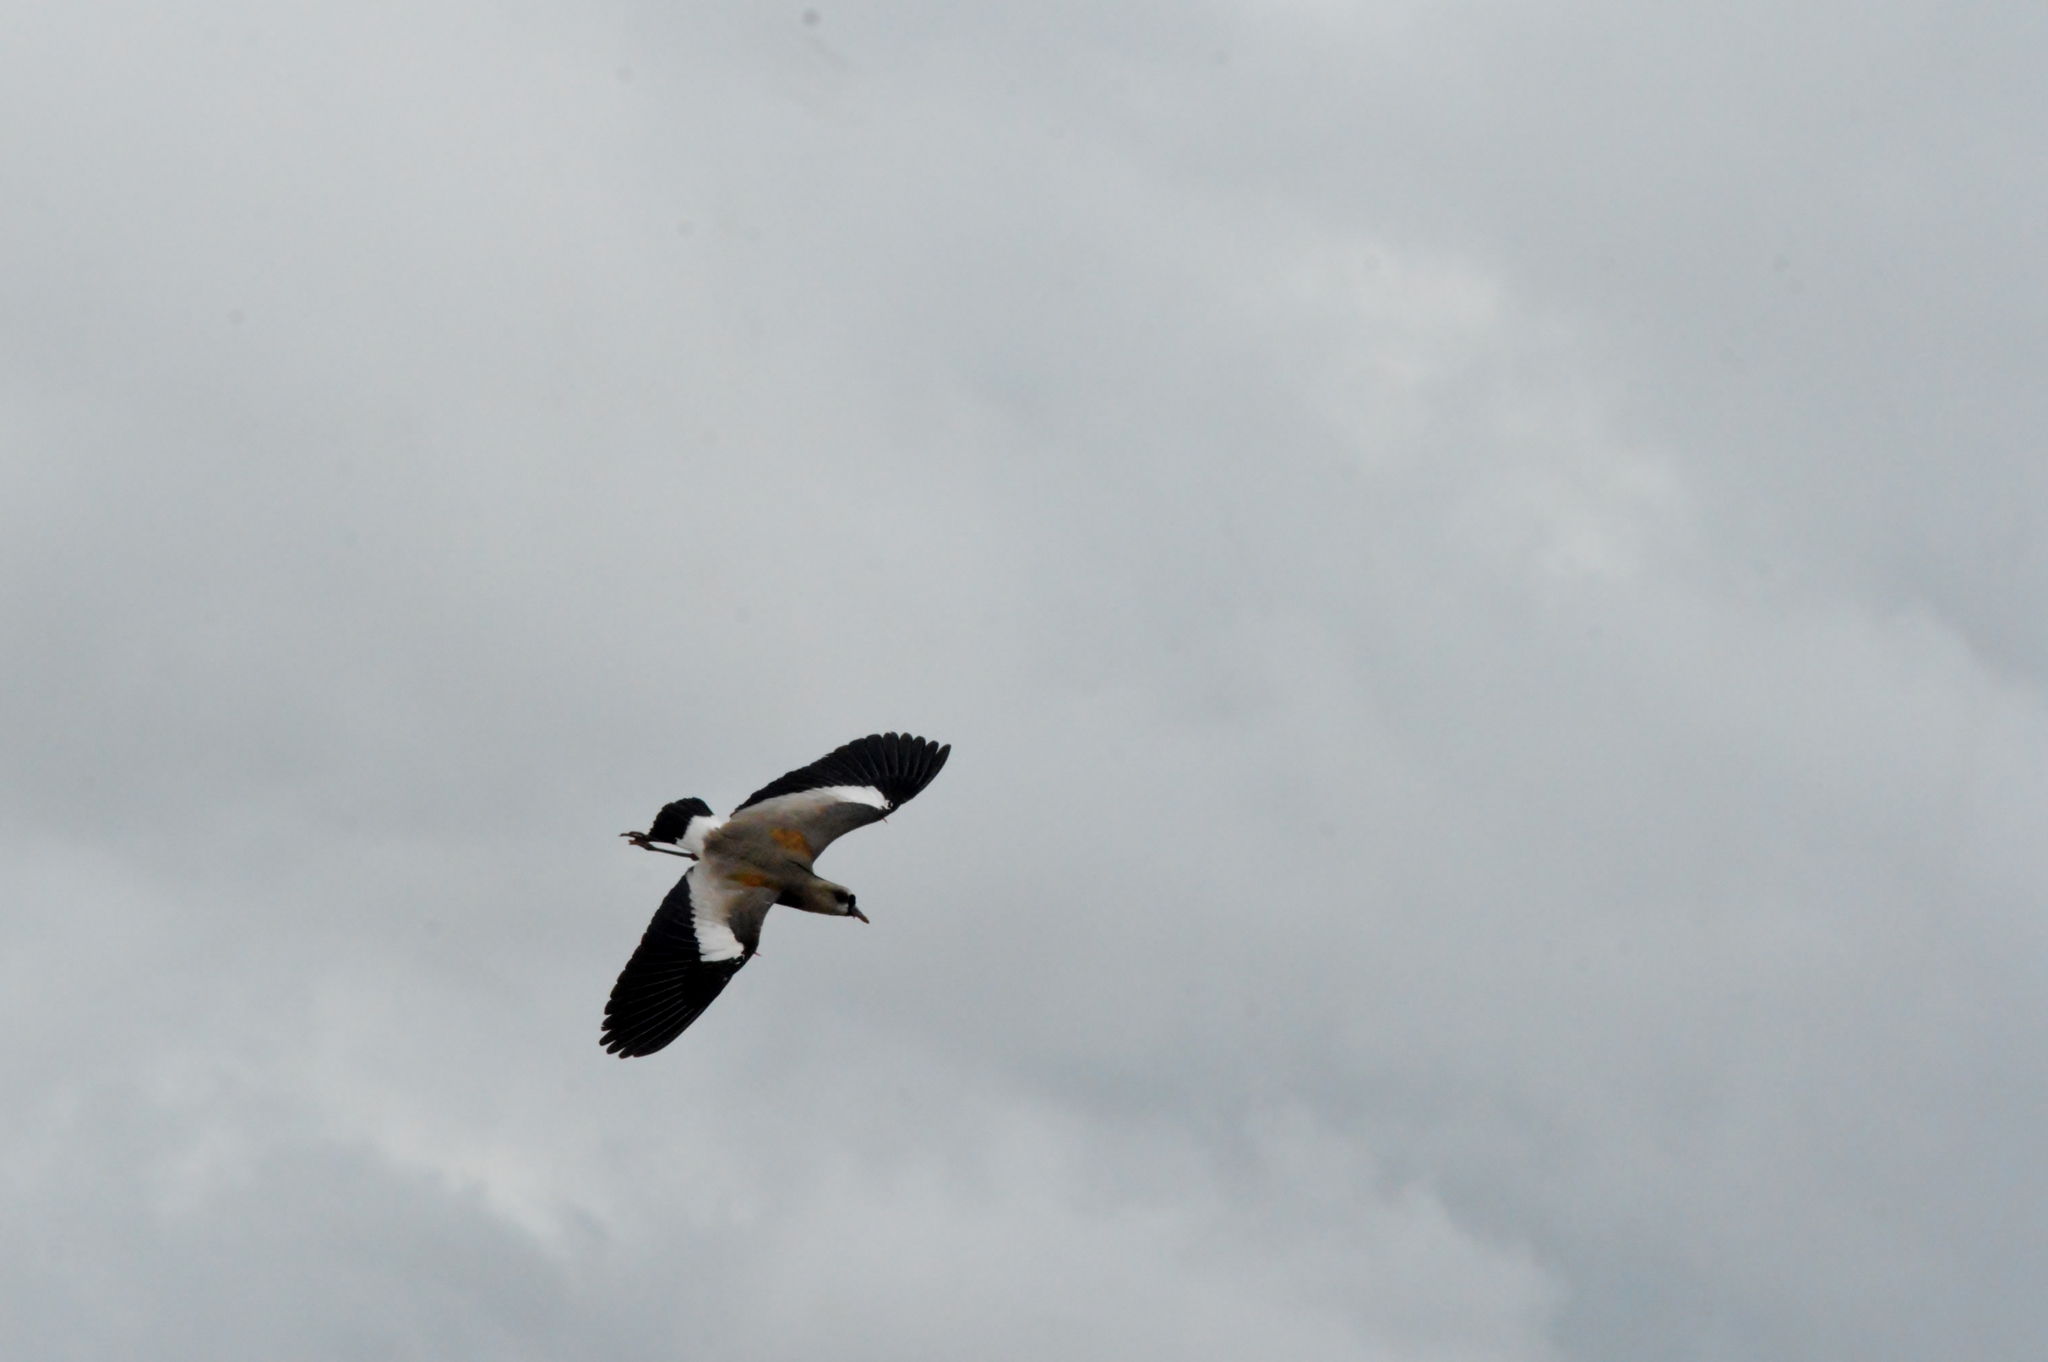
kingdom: Animalia
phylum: Chordata
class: Aves
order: Charadriiformes
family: Charadriidae
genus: Vanellus
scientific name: Vanellus chilensis
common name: Southern lapwing
